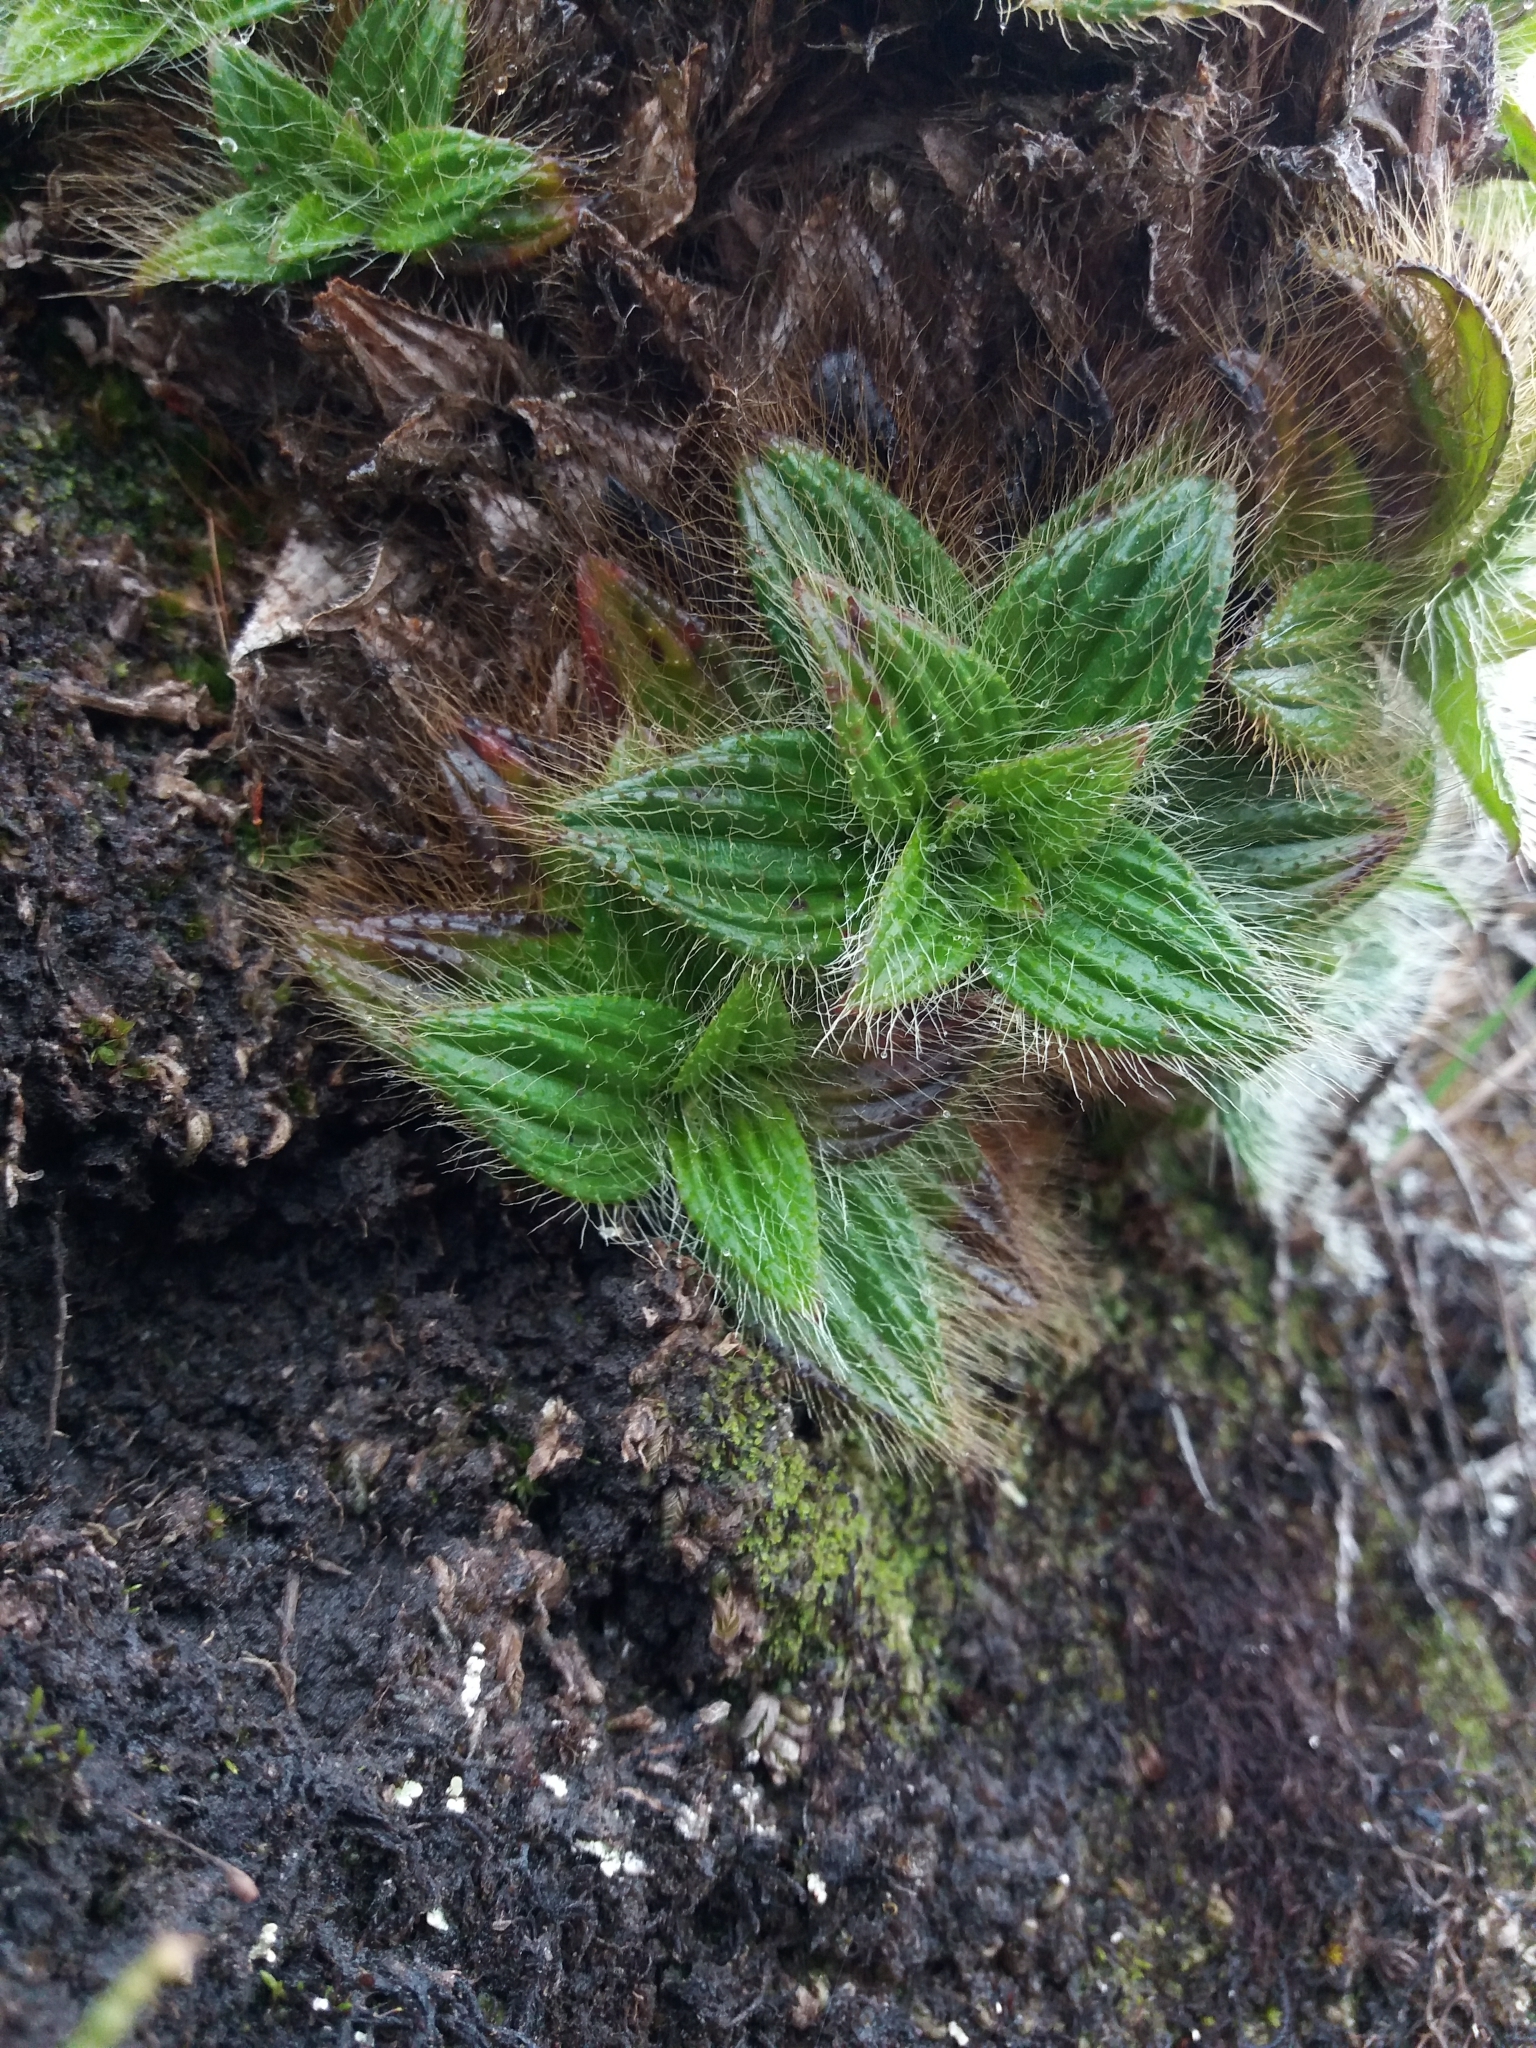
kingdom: Plantae
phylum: Tracheophyta
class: Magnoliopsida
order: Myrtales
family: Melastomataceae
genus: Castratella
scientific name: Castratella piloselloides
